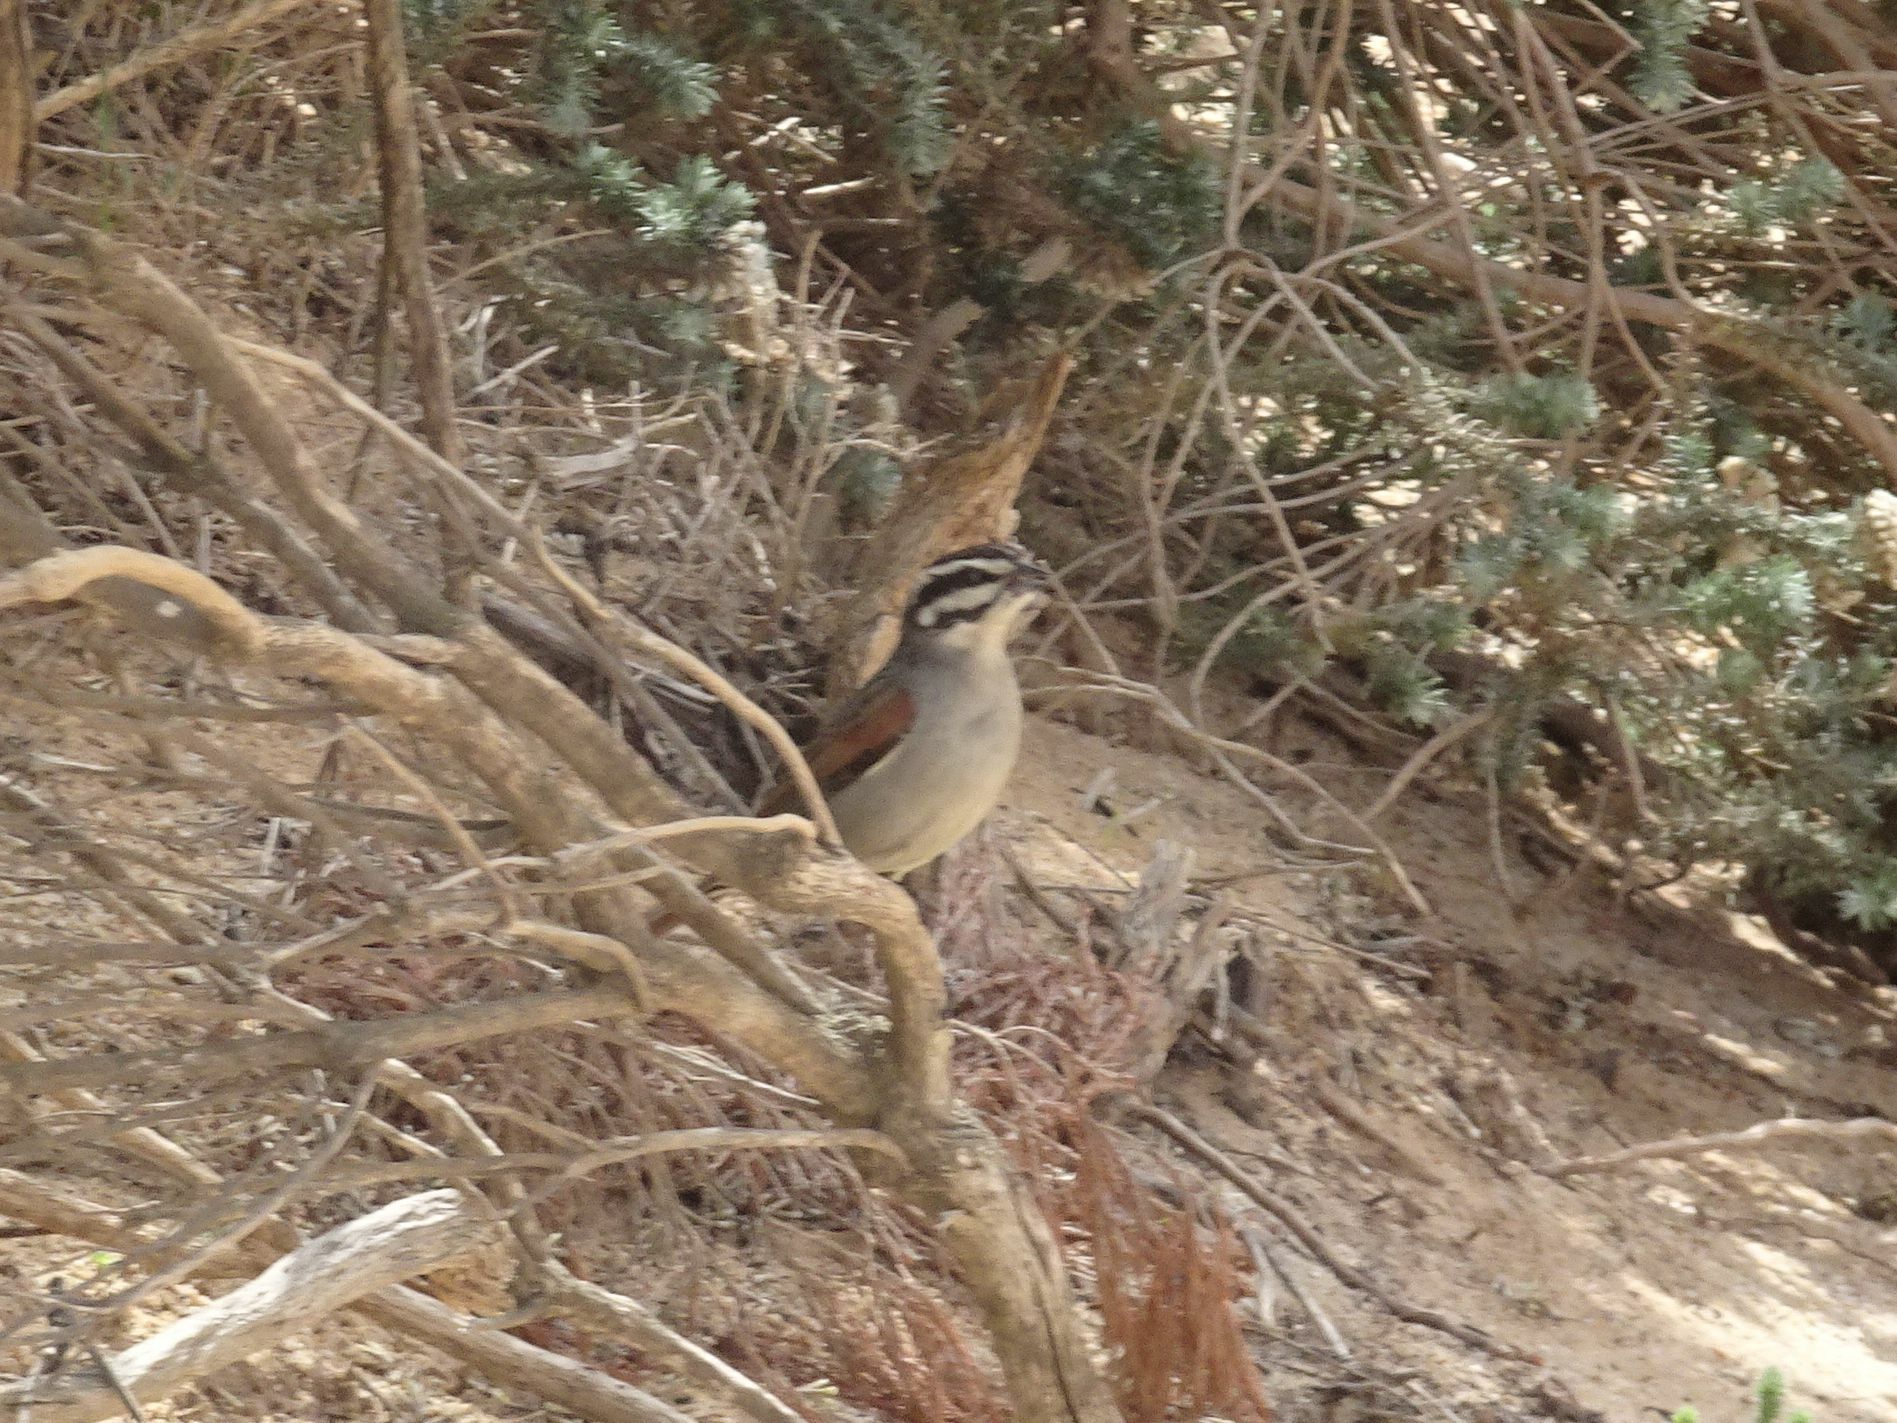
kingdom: Animalia
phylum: Chordata
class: Aves
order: Passeriformes
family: Emberizidae
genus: Emberiza
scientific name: Emberiza capensis
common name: Cape bunting
